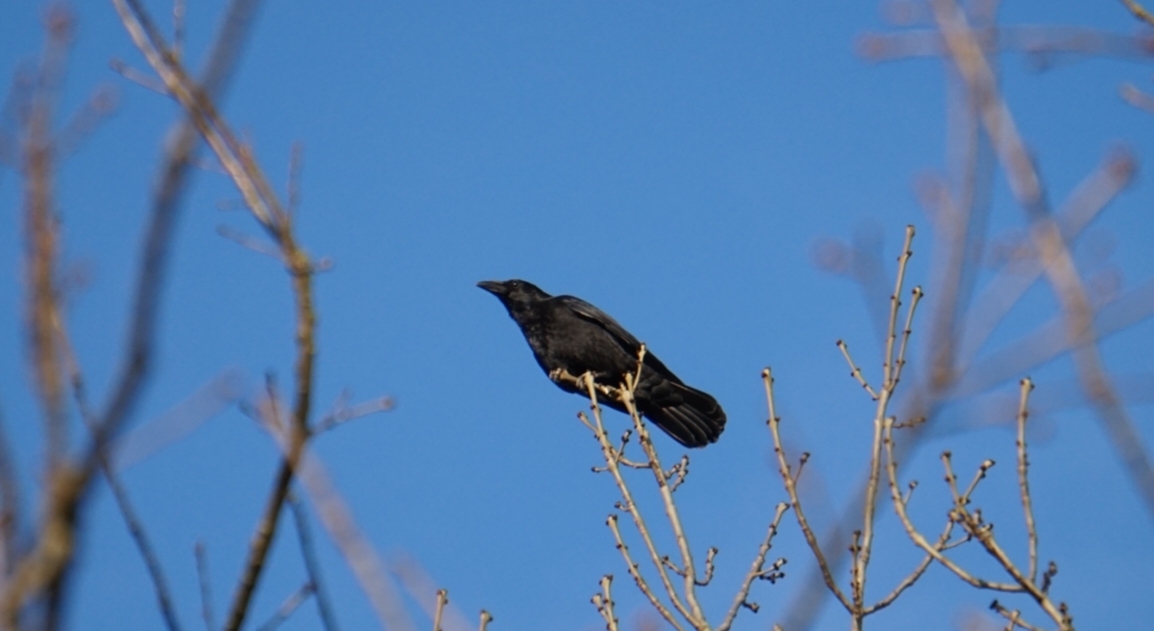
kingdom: Animalia
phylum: Chordata
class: Aves
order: Passeriformes
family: Corvidae
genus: Corvus
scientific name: Corvus corone
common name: Carrion crow
